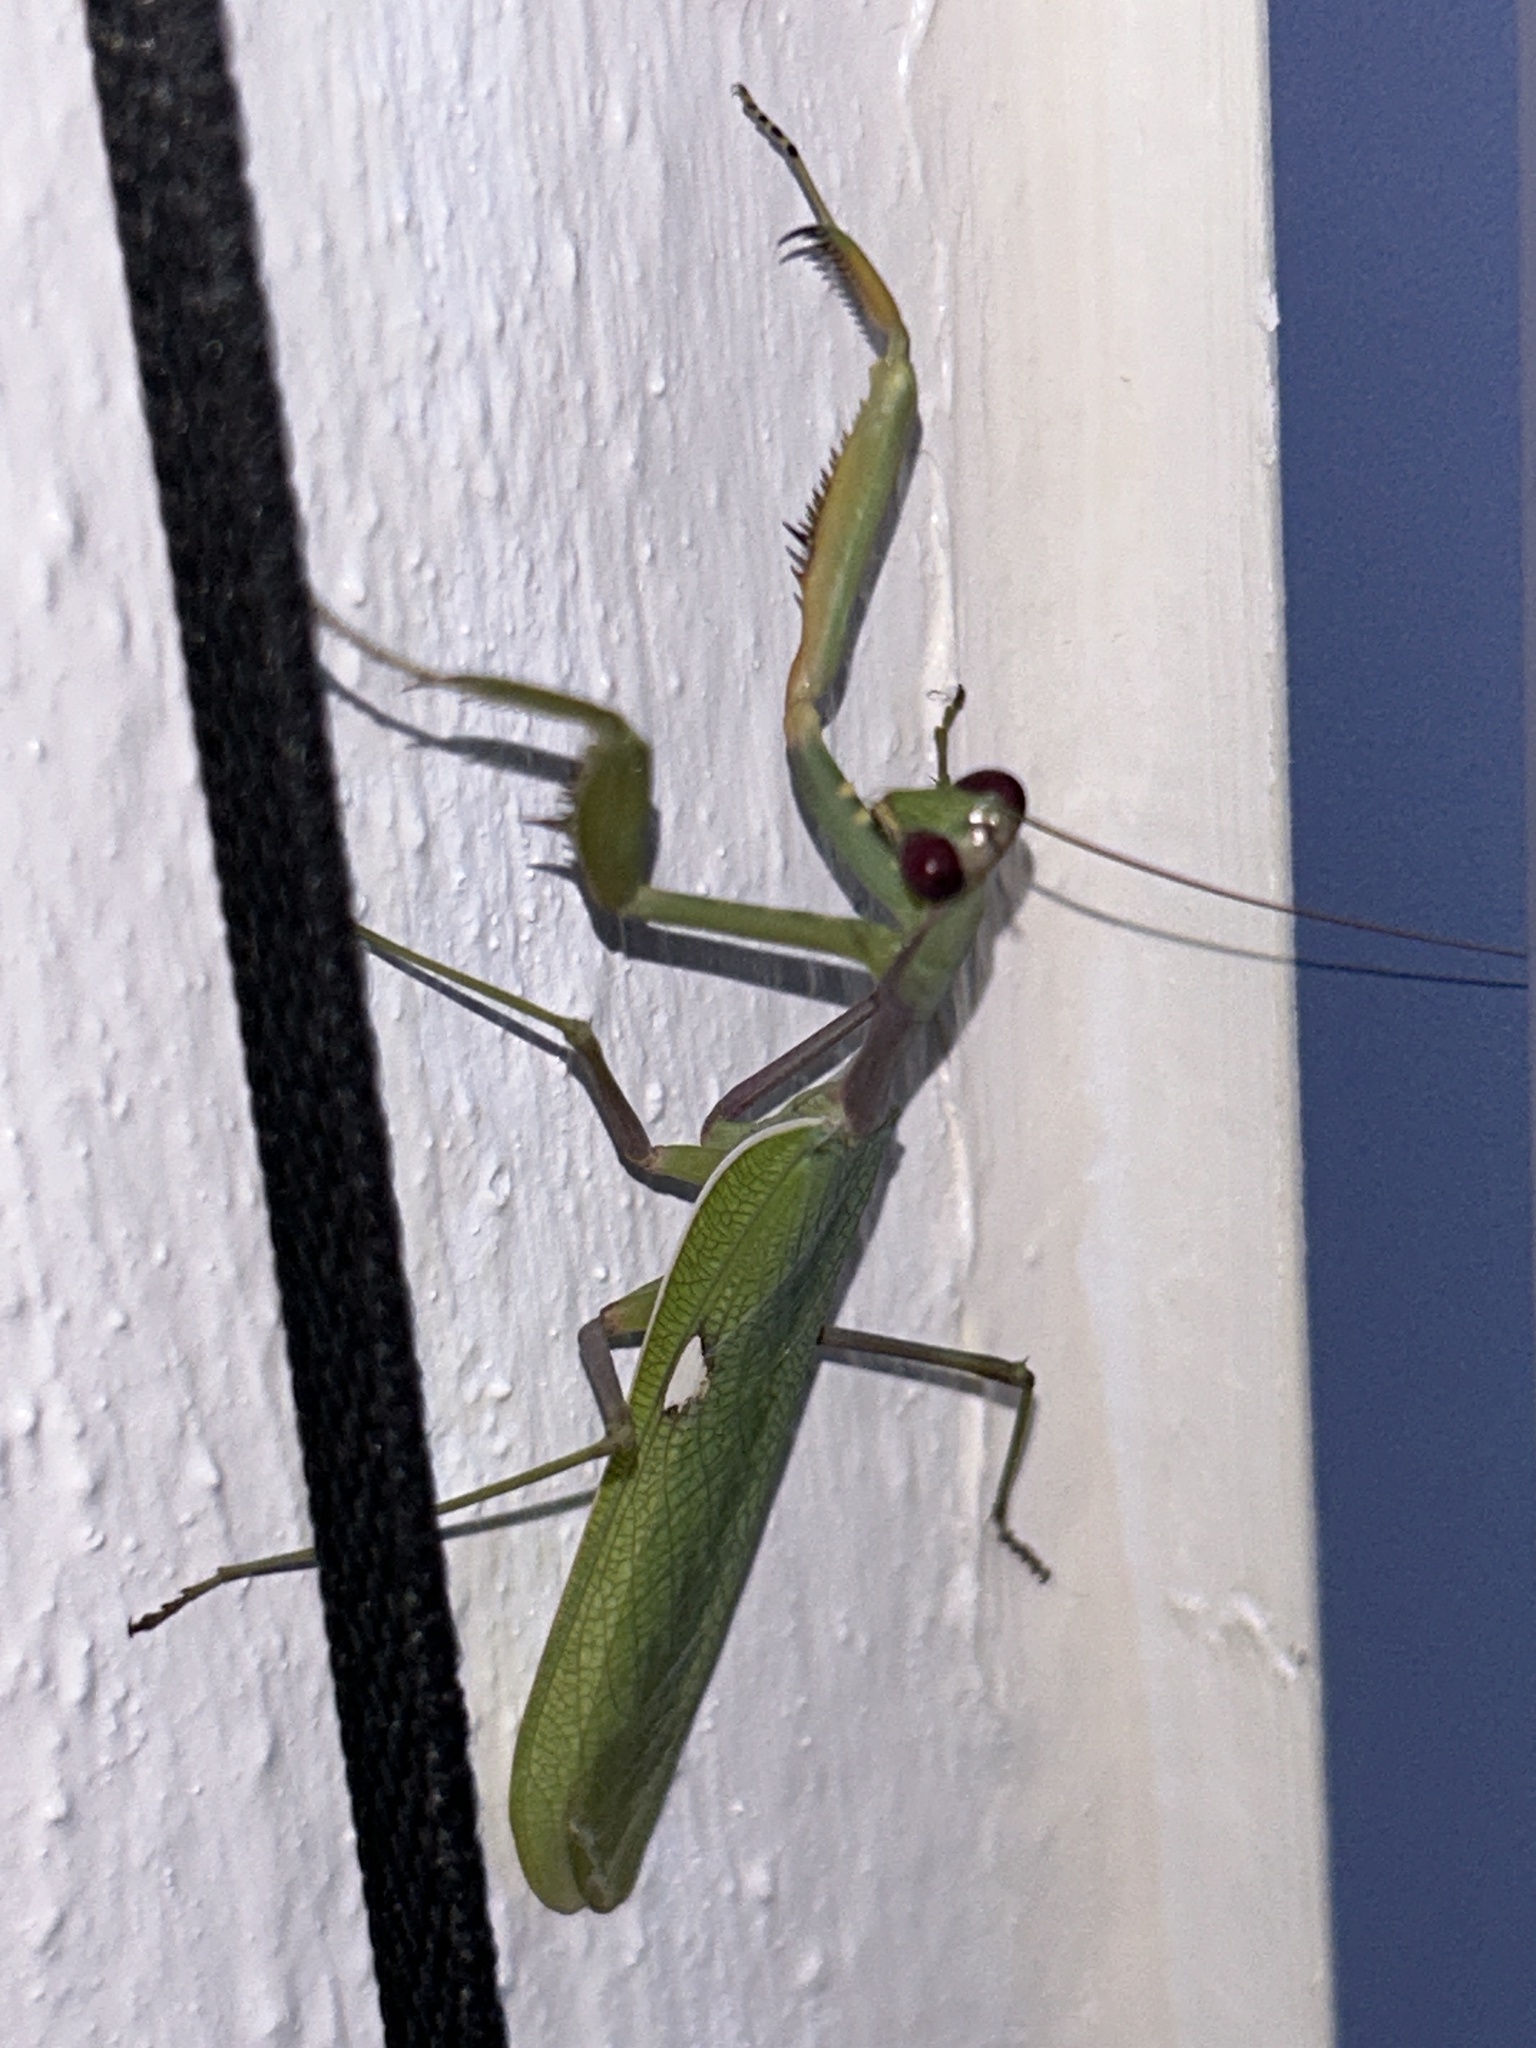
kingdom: Animalia
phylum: Arthropoda
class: Insecta
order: Mantodea
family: Mantidae
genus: Sphodromantis
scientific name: Sphodromantis viridis
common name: Giant african mantis
